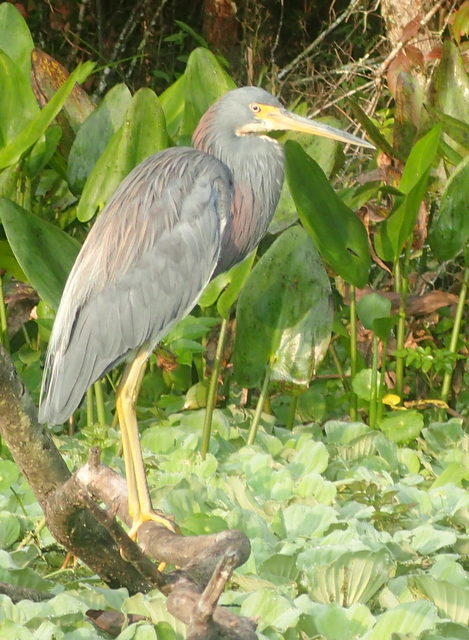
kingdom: Animalia
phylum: Chordata
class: Aves
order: Pelecaniformes
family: Ardeidae
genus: Egretta
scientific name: Egretta tricolor
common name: Tricolored heron
